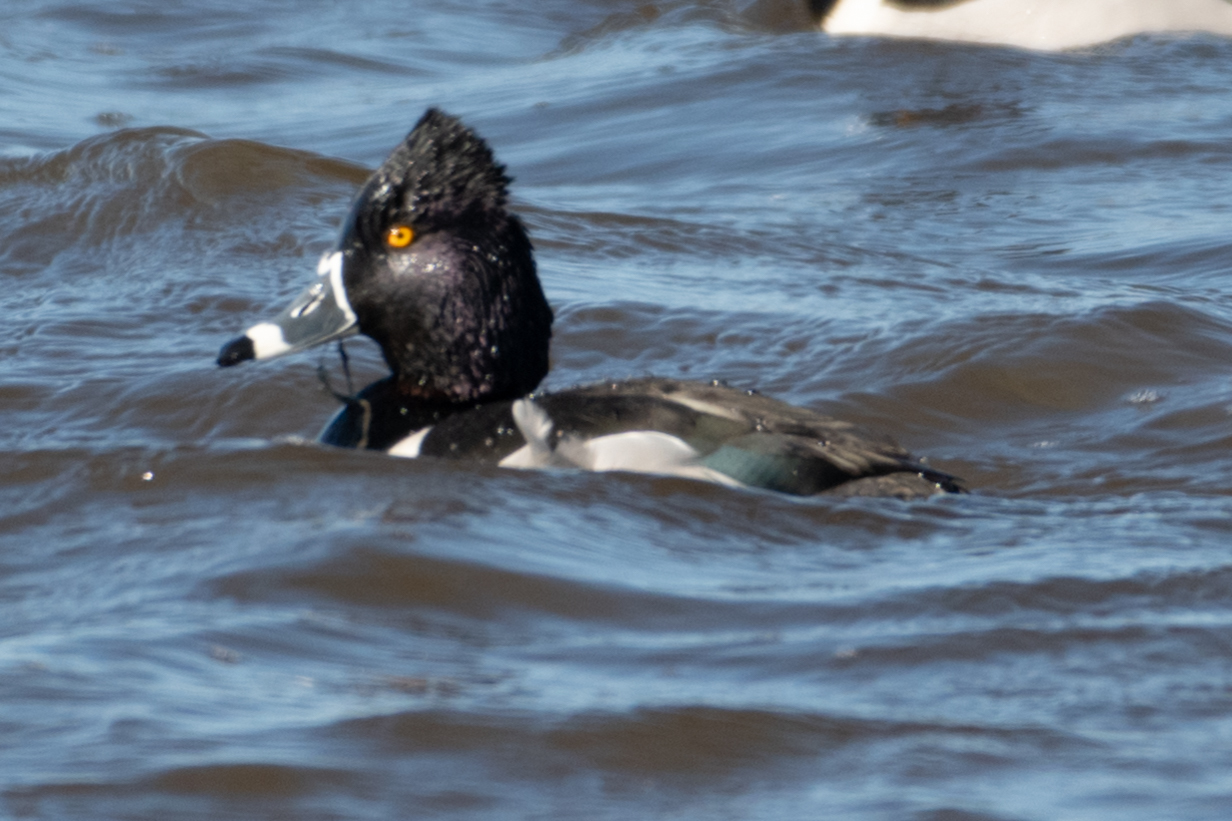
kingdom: Animalia
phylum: Chordata
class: Aves
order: Anseriformes
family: Anatidae
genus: Aythya
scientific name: Aythya collaris
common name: Ring-necked duck
